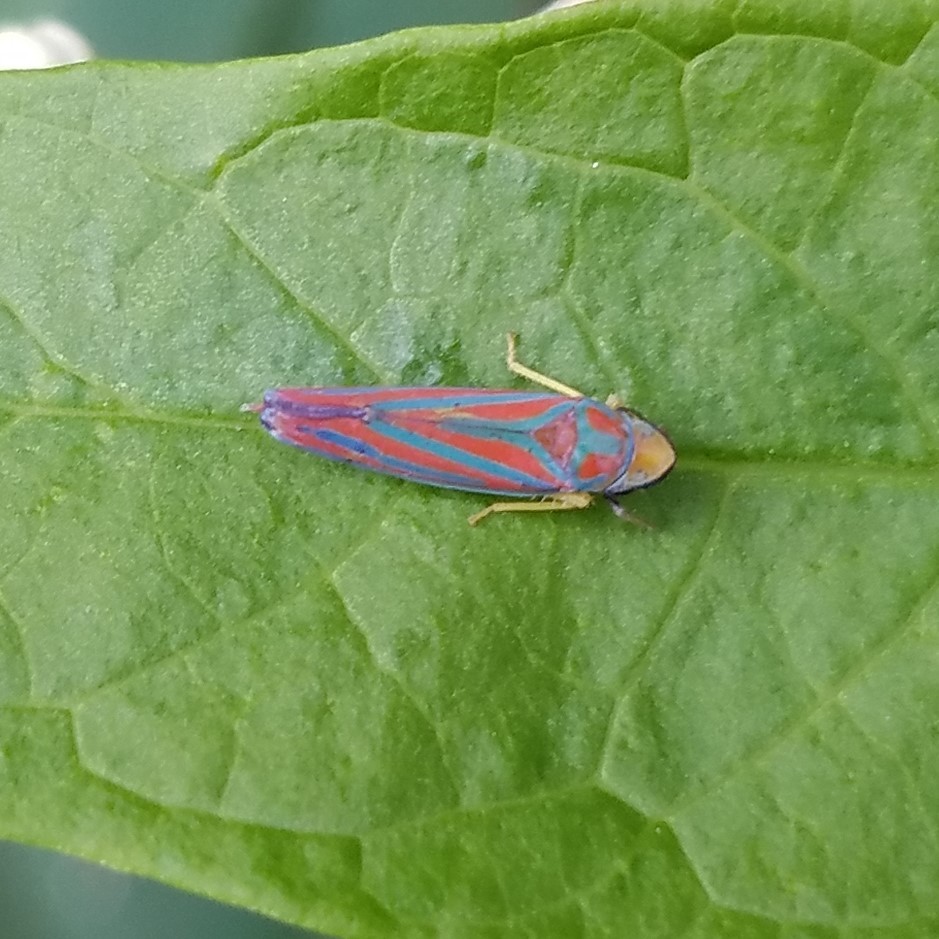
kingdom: Animalia
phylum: Arthropoda
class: Insecta
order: Hemiptera
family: Cicadellidae
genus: Graphocephala
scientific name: Graphocephala coccinea
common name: Candy-striped leafhopper
